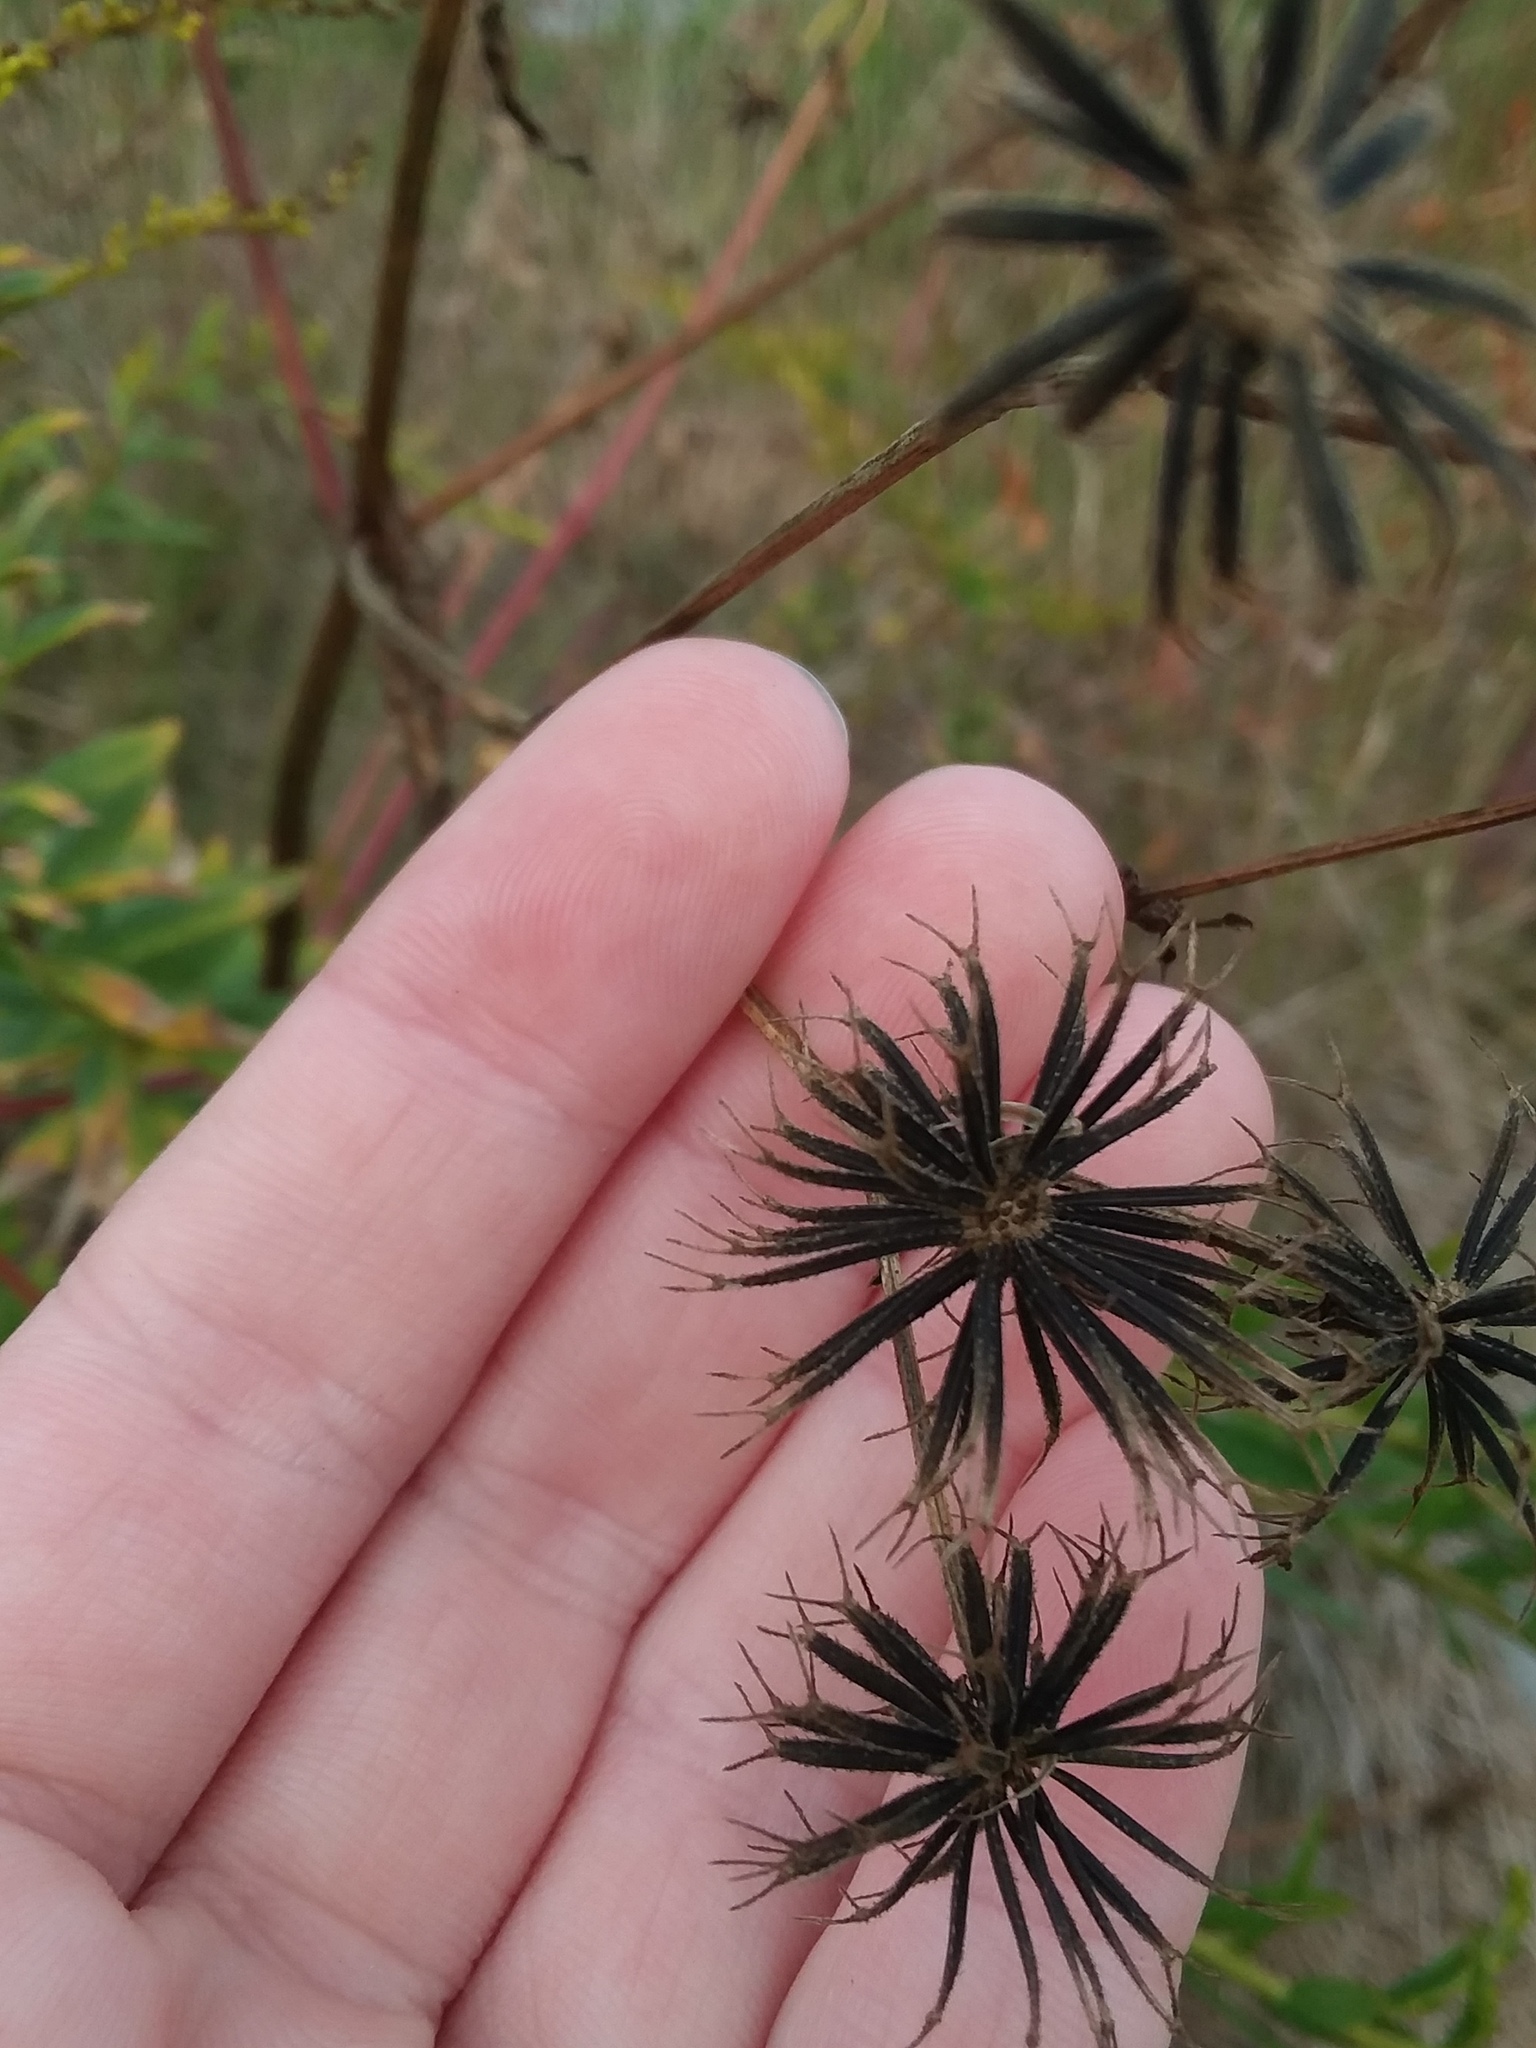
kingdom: Plantae
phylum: Tracheophyta
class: Magnoliopsida
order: Asterales
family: Asteraceae
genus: Bidens
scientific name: Bidens alba
